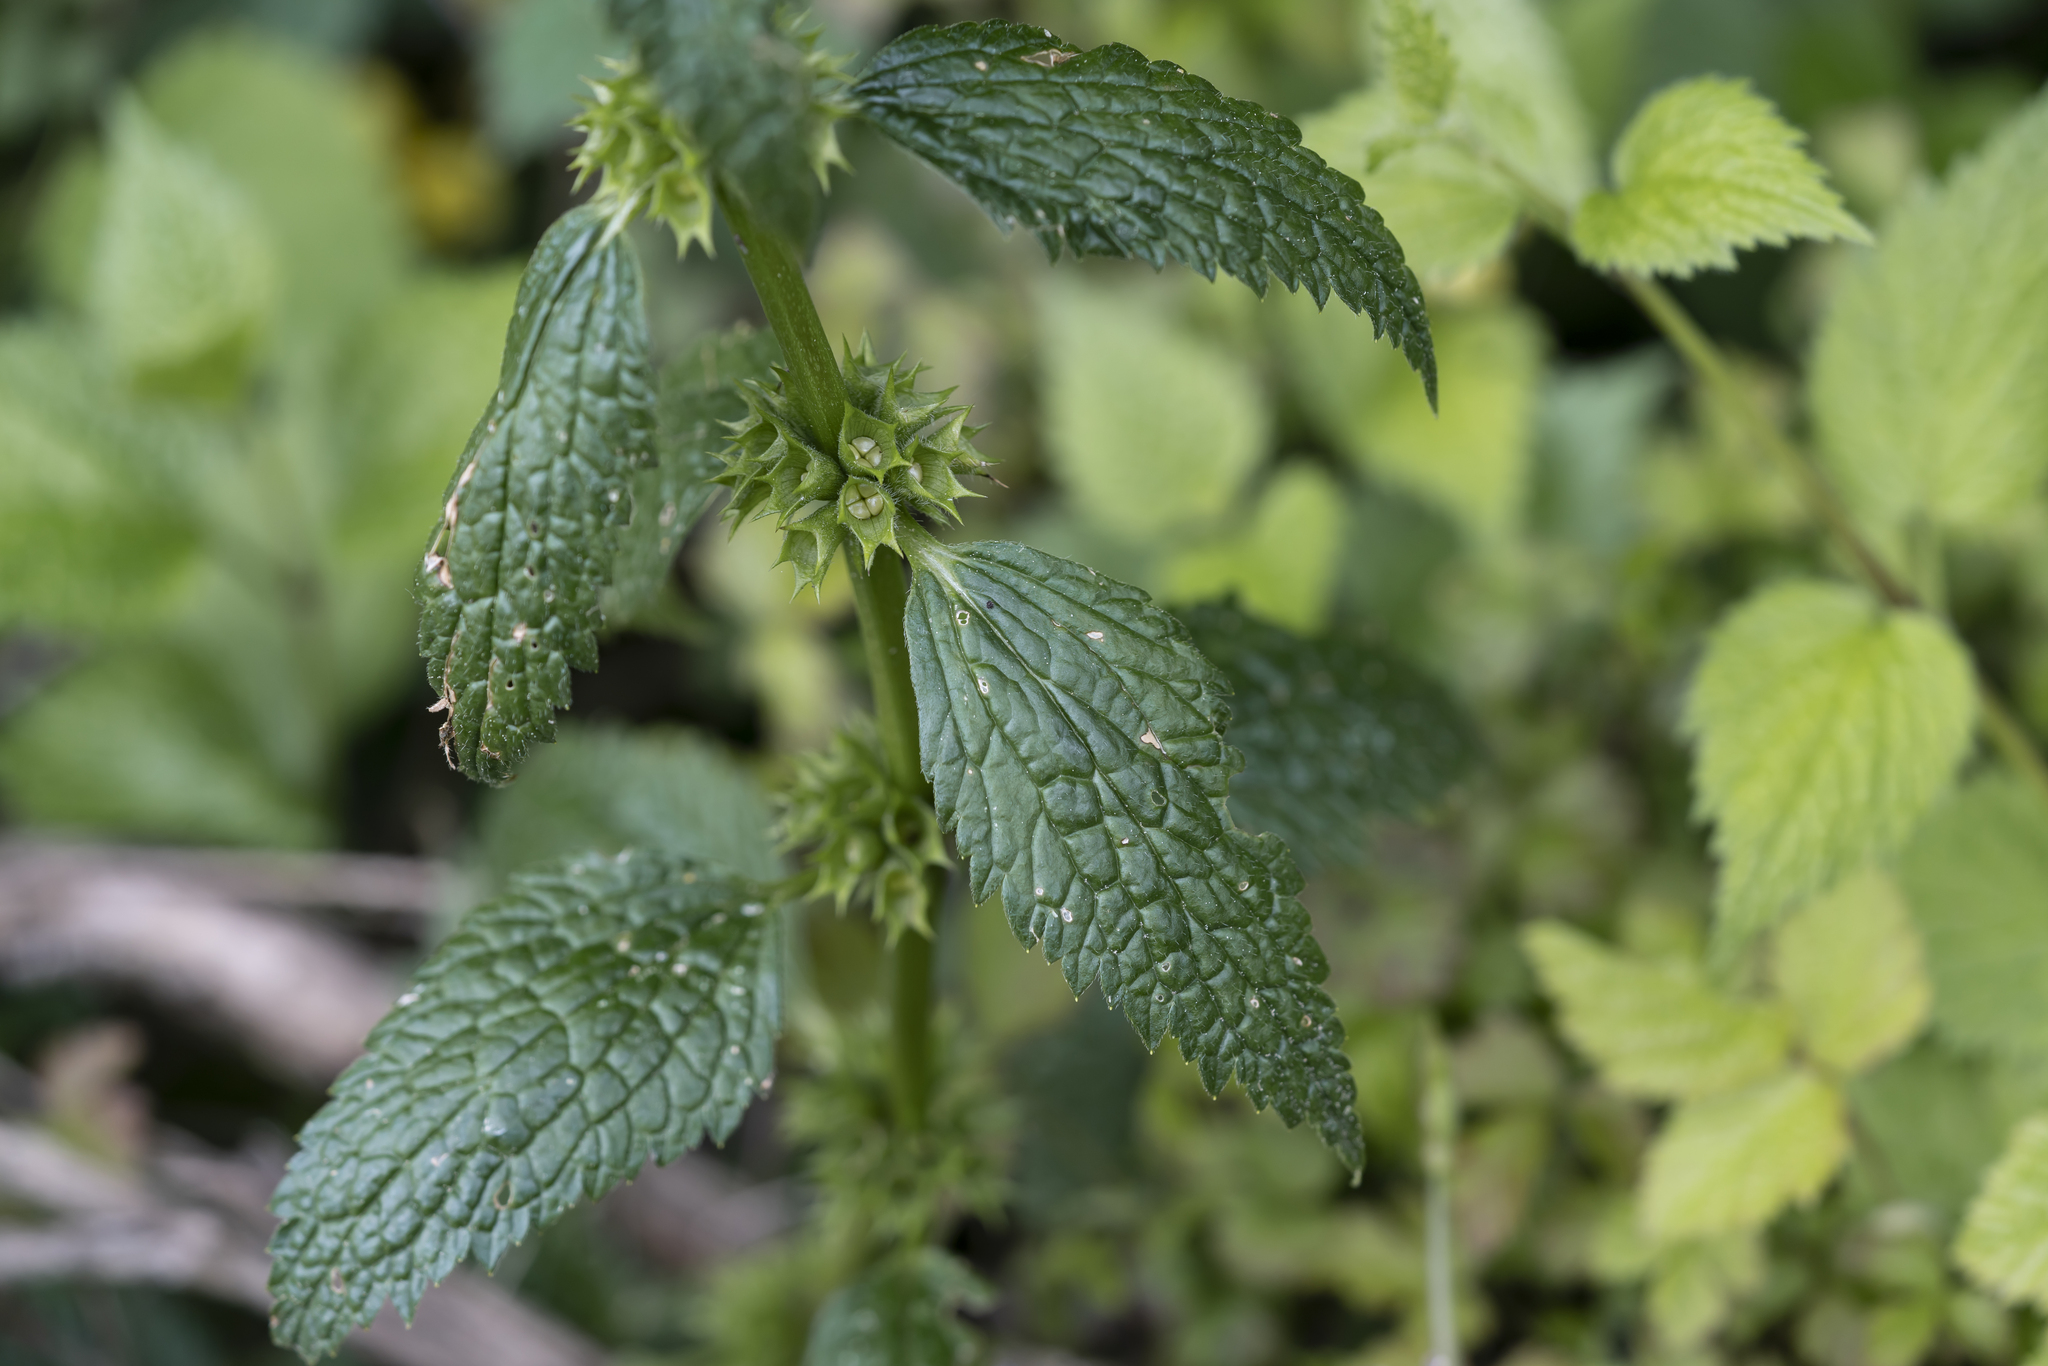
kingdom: Plantae
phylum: Tracheophyta
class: Magnoliopsida
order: Lamiales
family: Lamiaceae
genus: Lamium
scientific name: Lamium galeobdolon
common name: Yellow archangel
